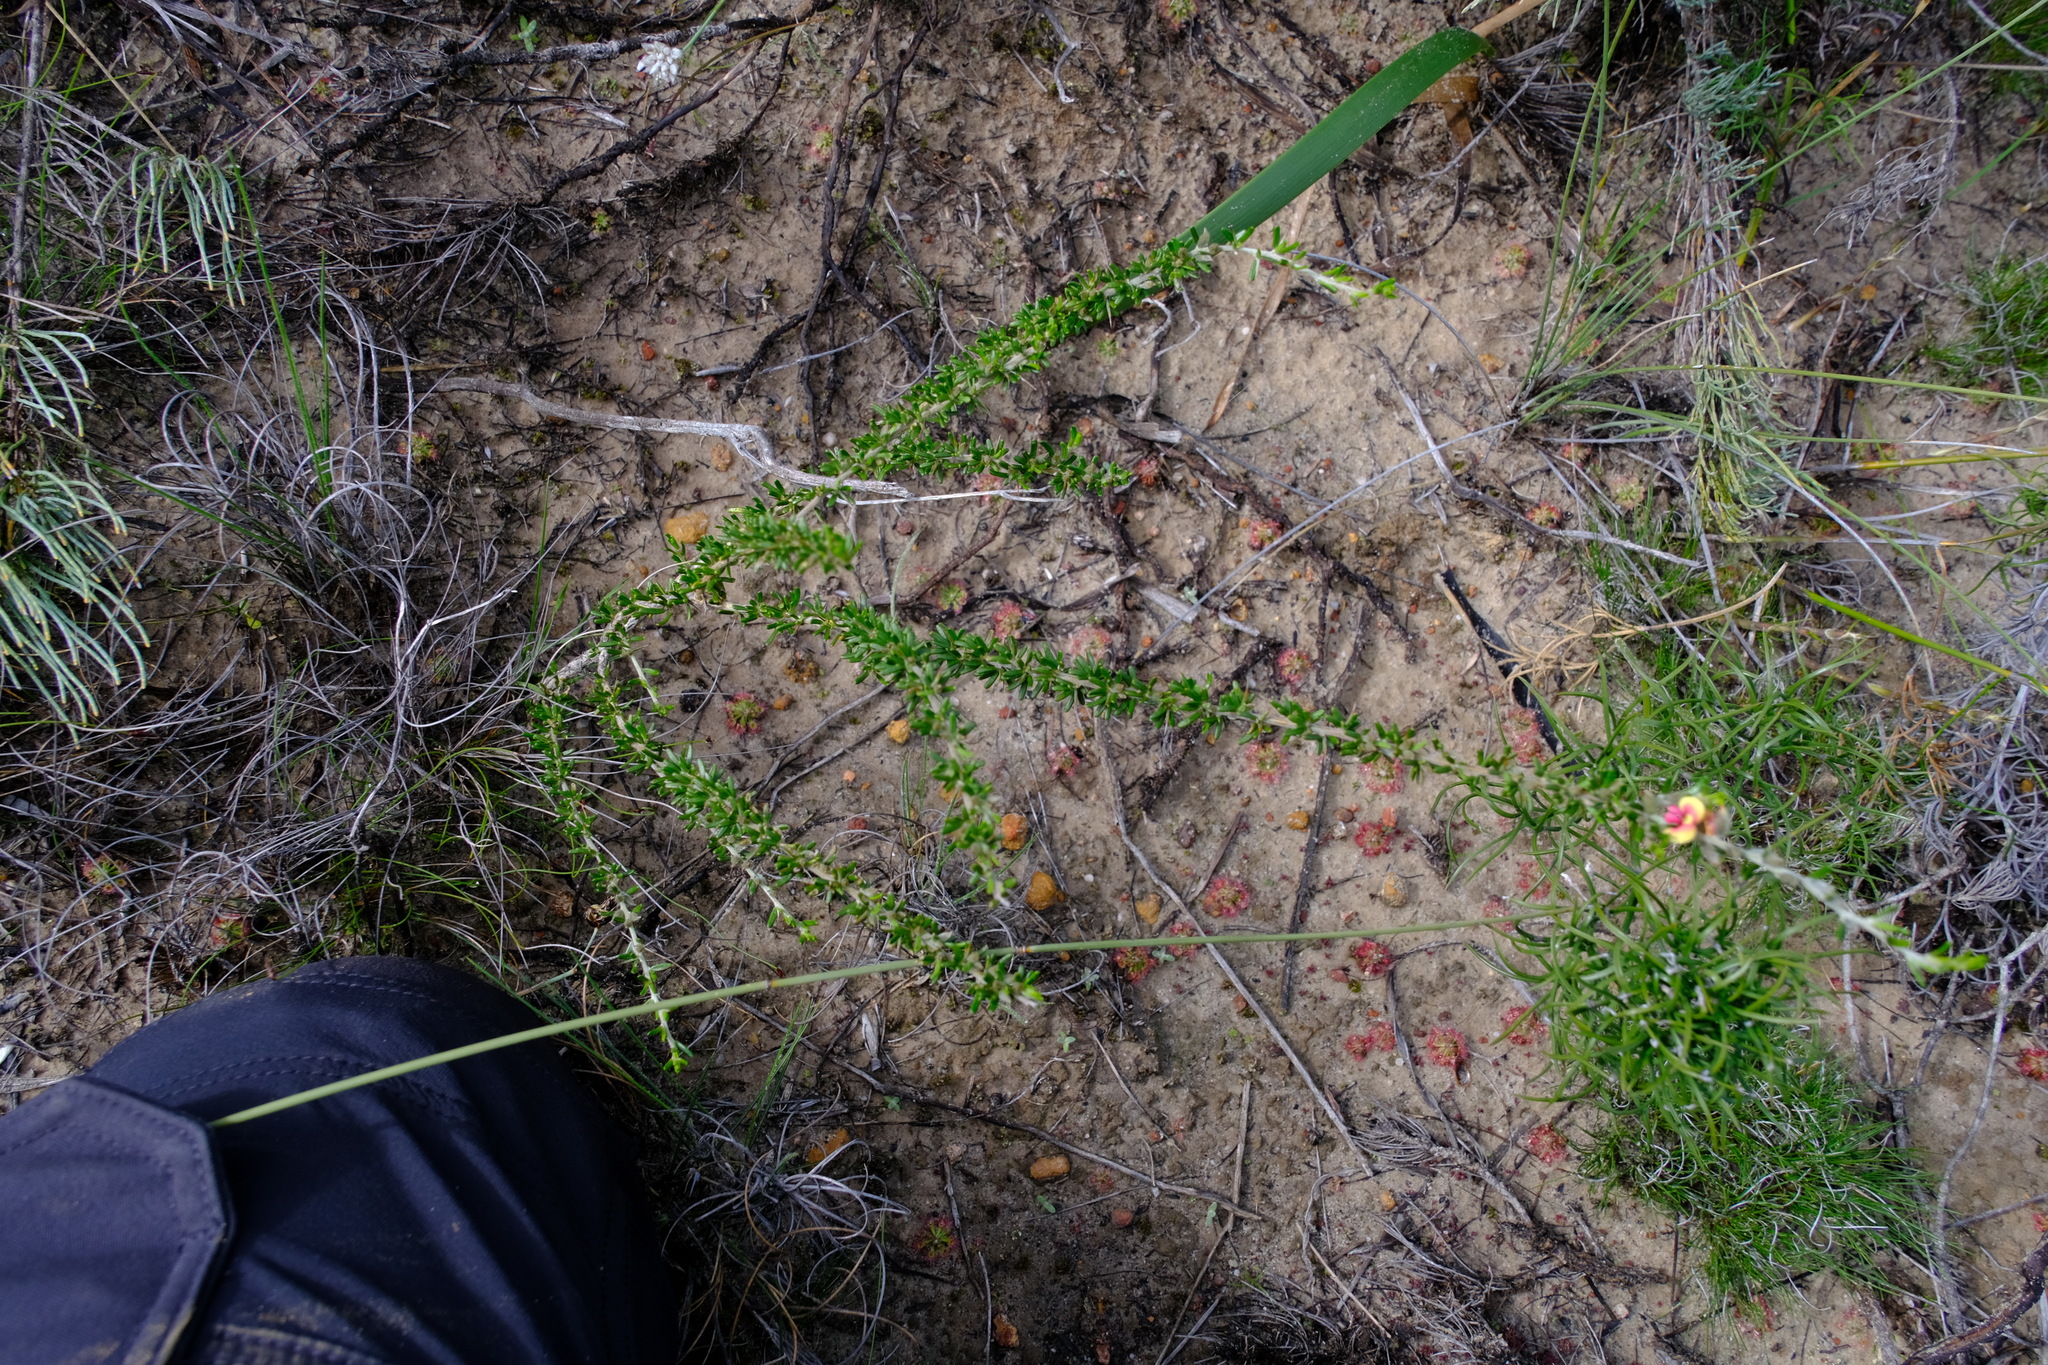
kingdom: Plantae
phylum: Tracheophyta
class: Magnoliopsida
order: Fabales
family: Fabaceae
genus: Mirbelia
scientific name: Mirbelia spinosa
